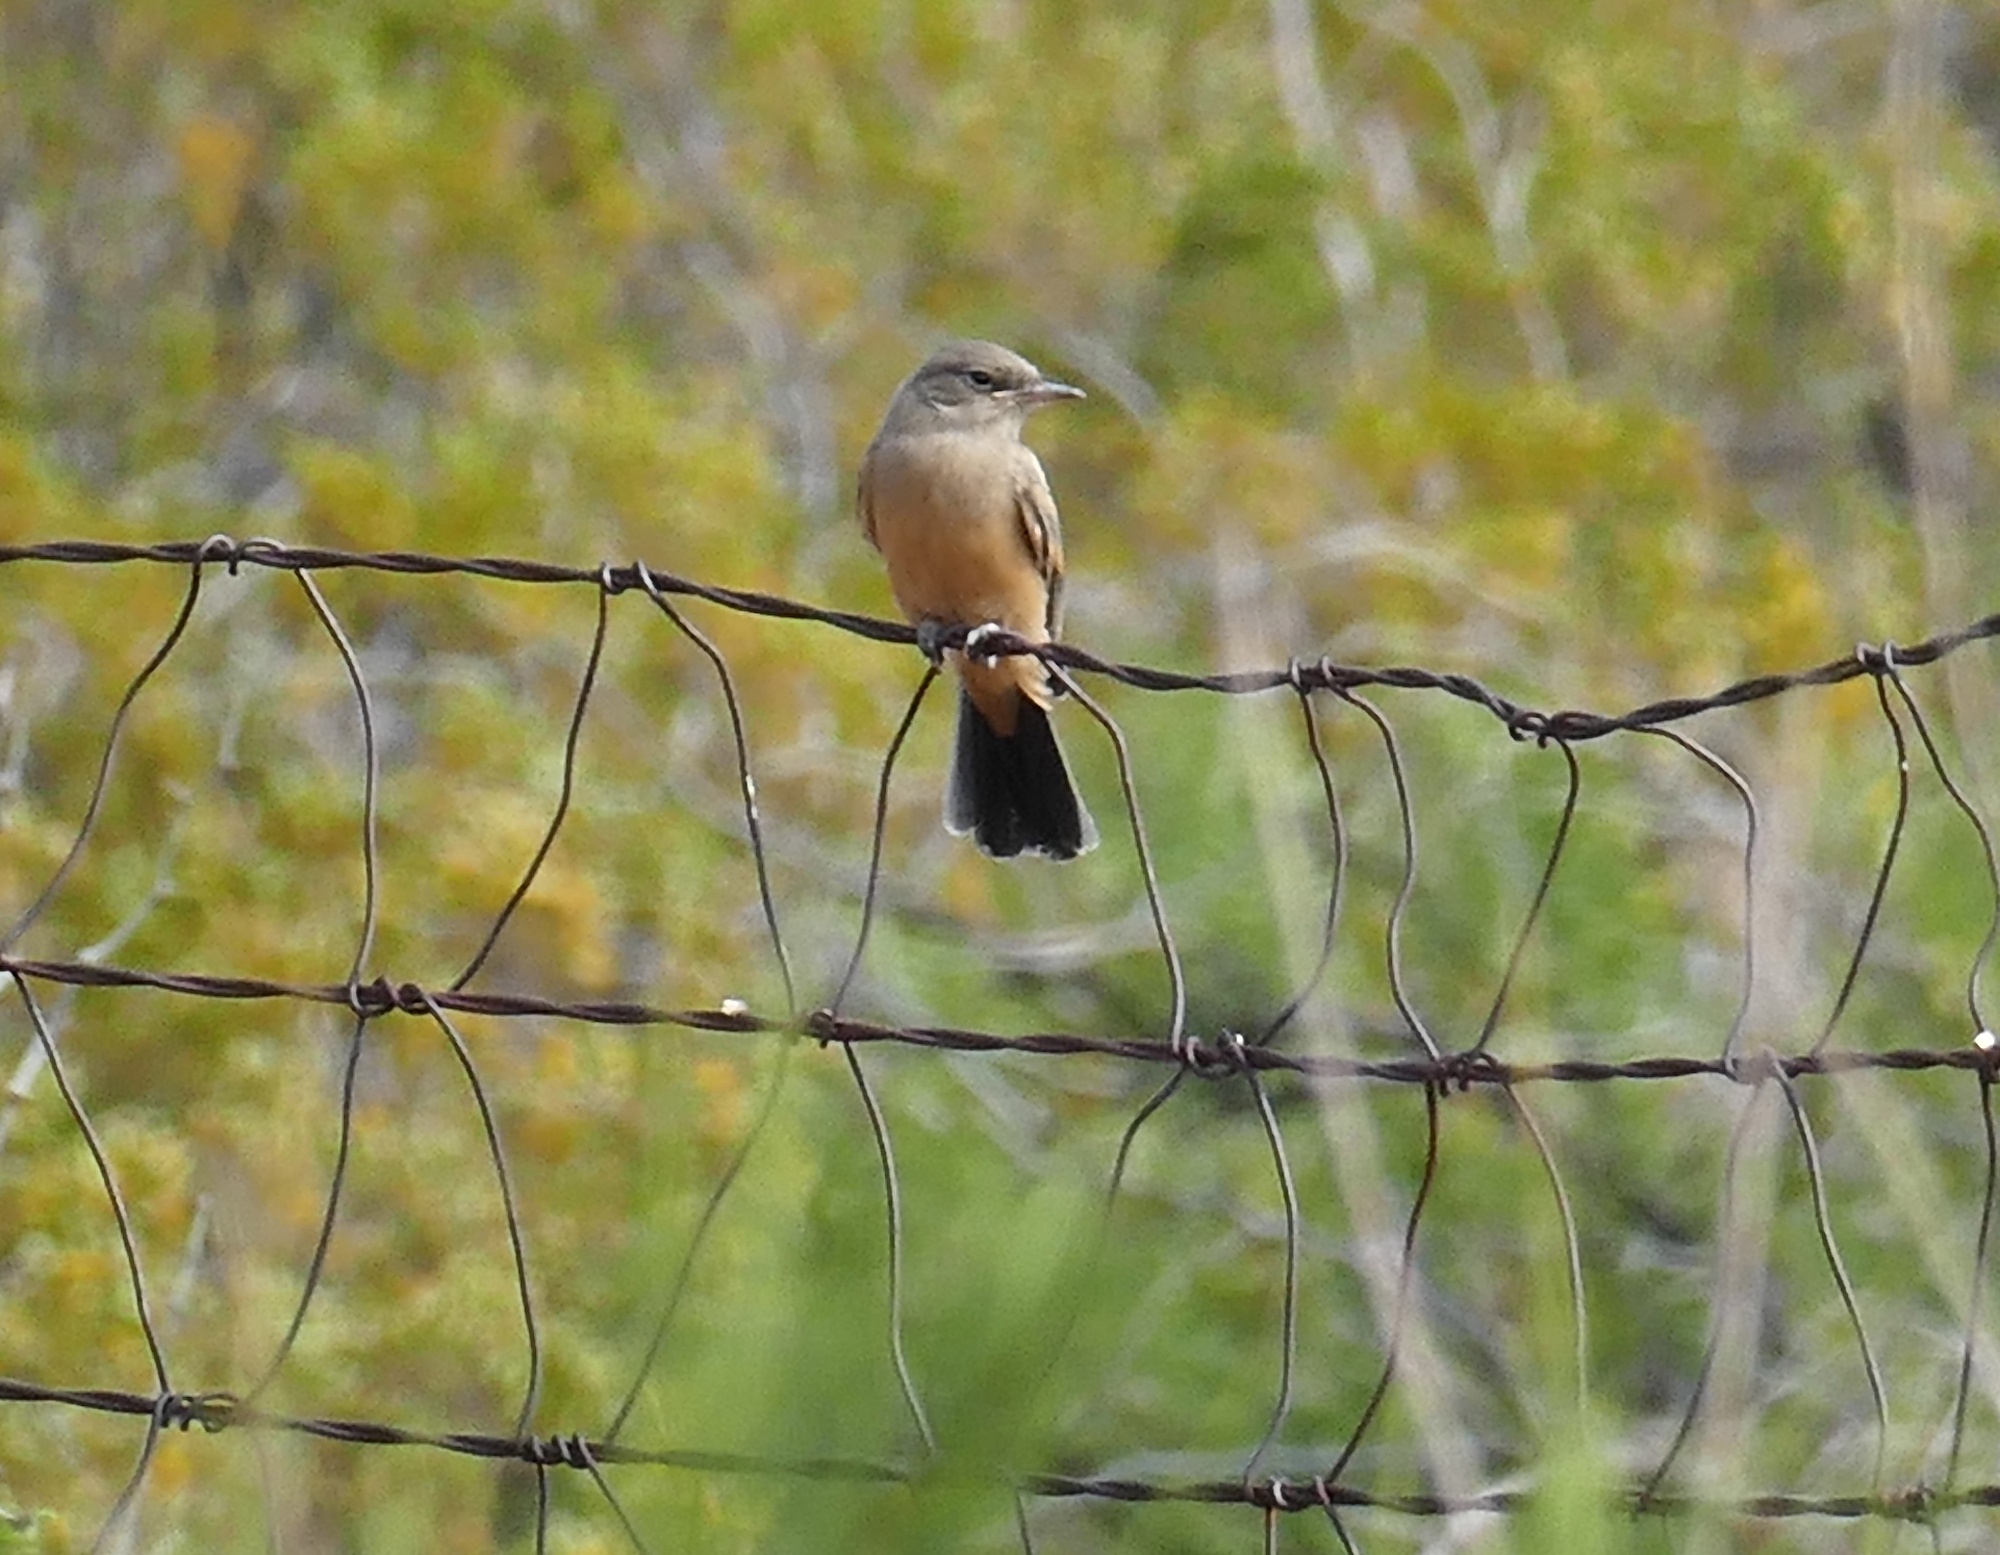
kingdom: Animalia
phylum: Chordata
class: Aves
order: Passeriformes
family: Tyrannidae
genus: Sayornis
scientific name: Sayornis saya
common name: Say's phoebe
